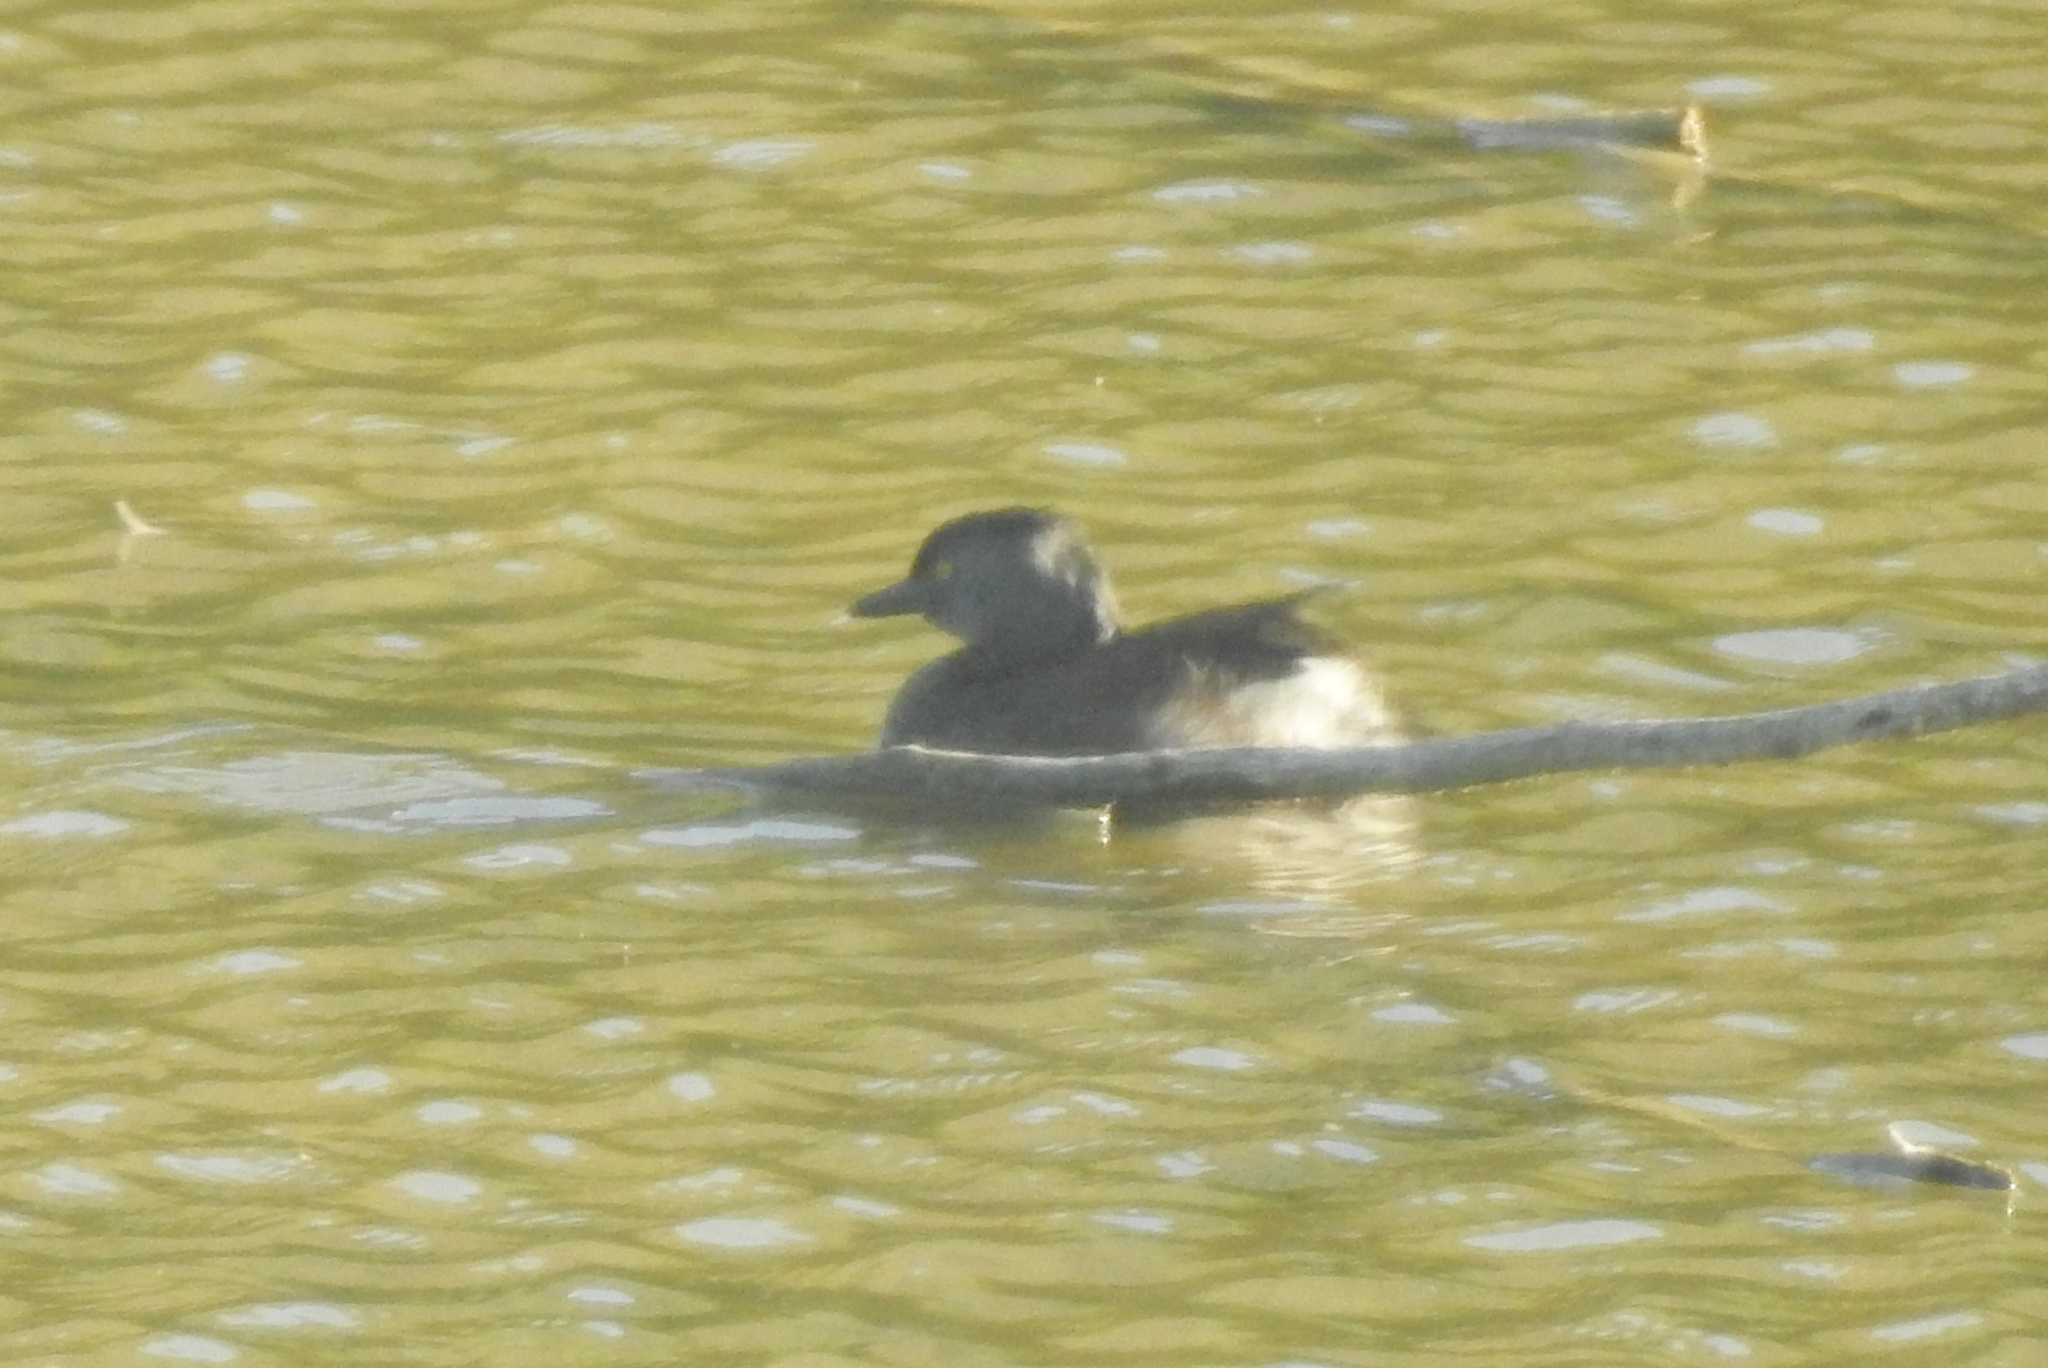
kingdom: Animalia
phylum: Chordata
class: Aves
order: Podicipediformes
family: Podicipedidae
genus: Tachybaptus
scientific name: Tachybaptus dominicus
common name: Least grebe
